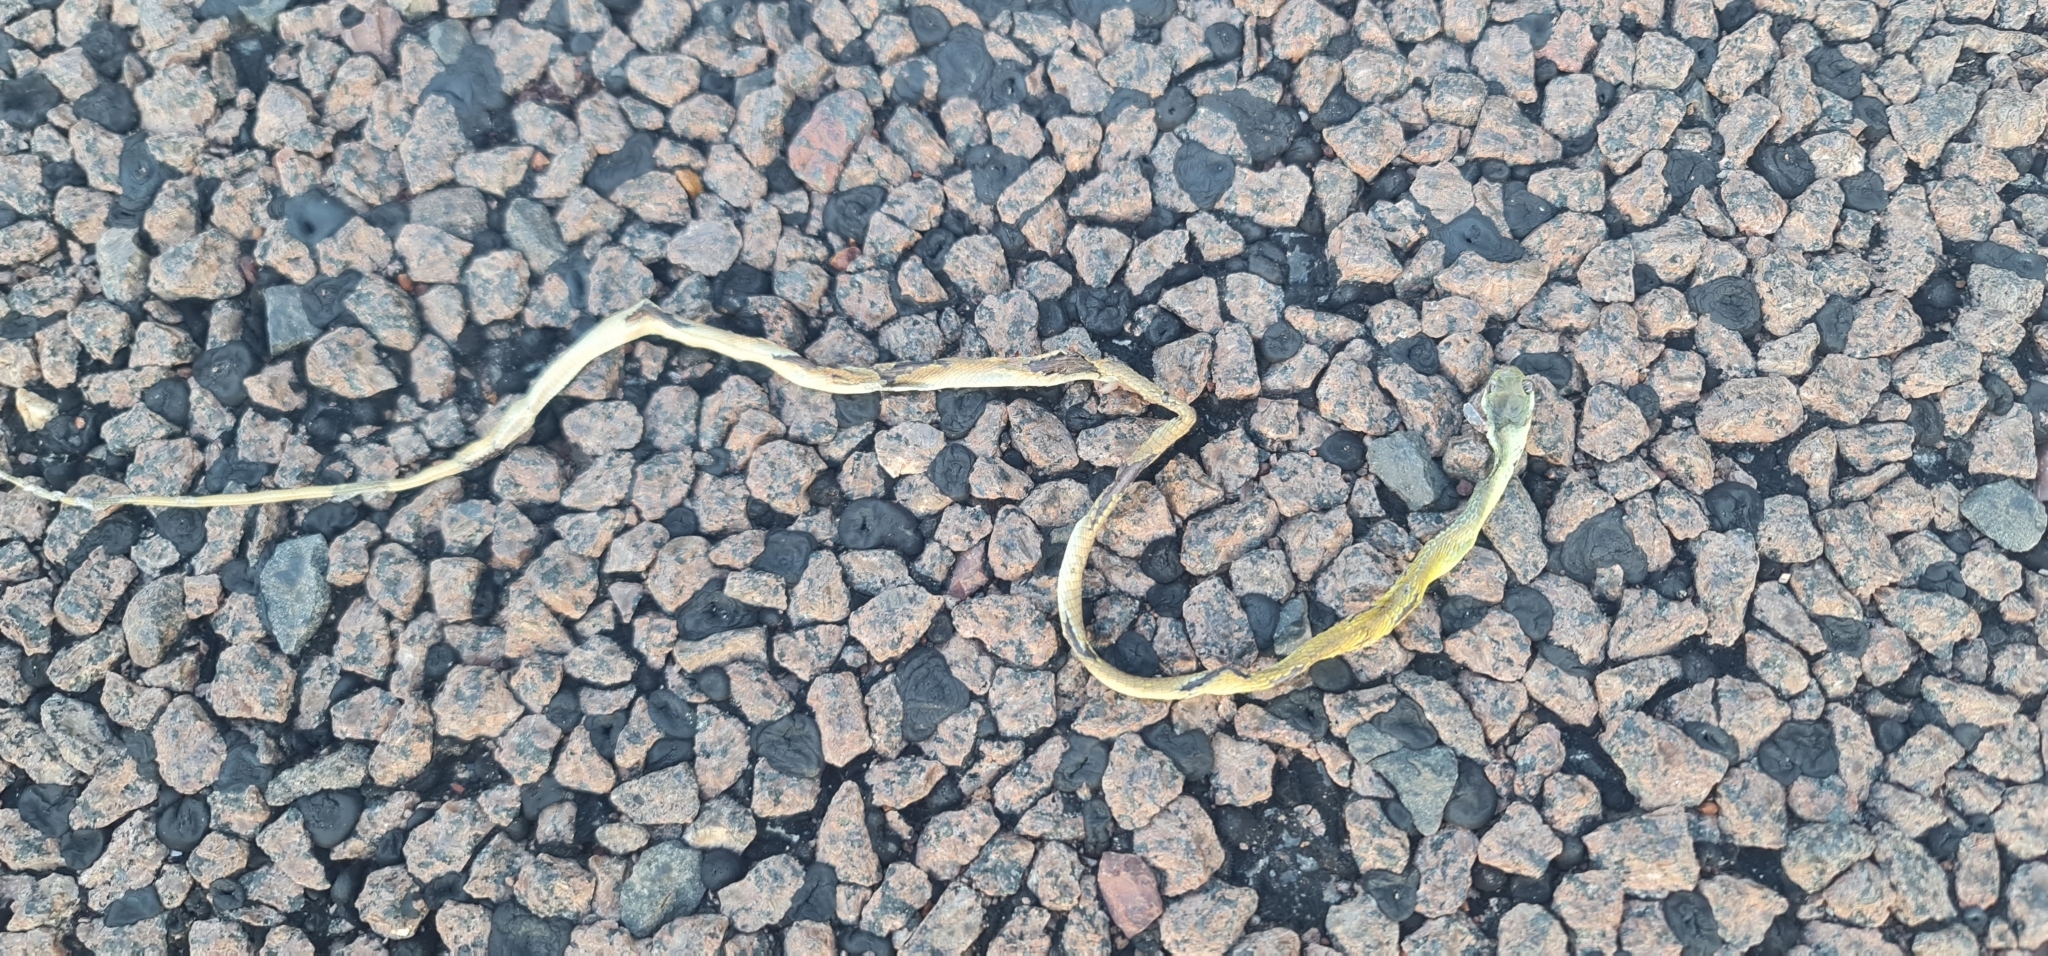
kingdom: Animalia
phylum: Chordata
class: Squamata
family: Colubridae
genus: Dendrelaphis
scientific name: Dendrelaphis punctulatus
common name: Common tree snake
